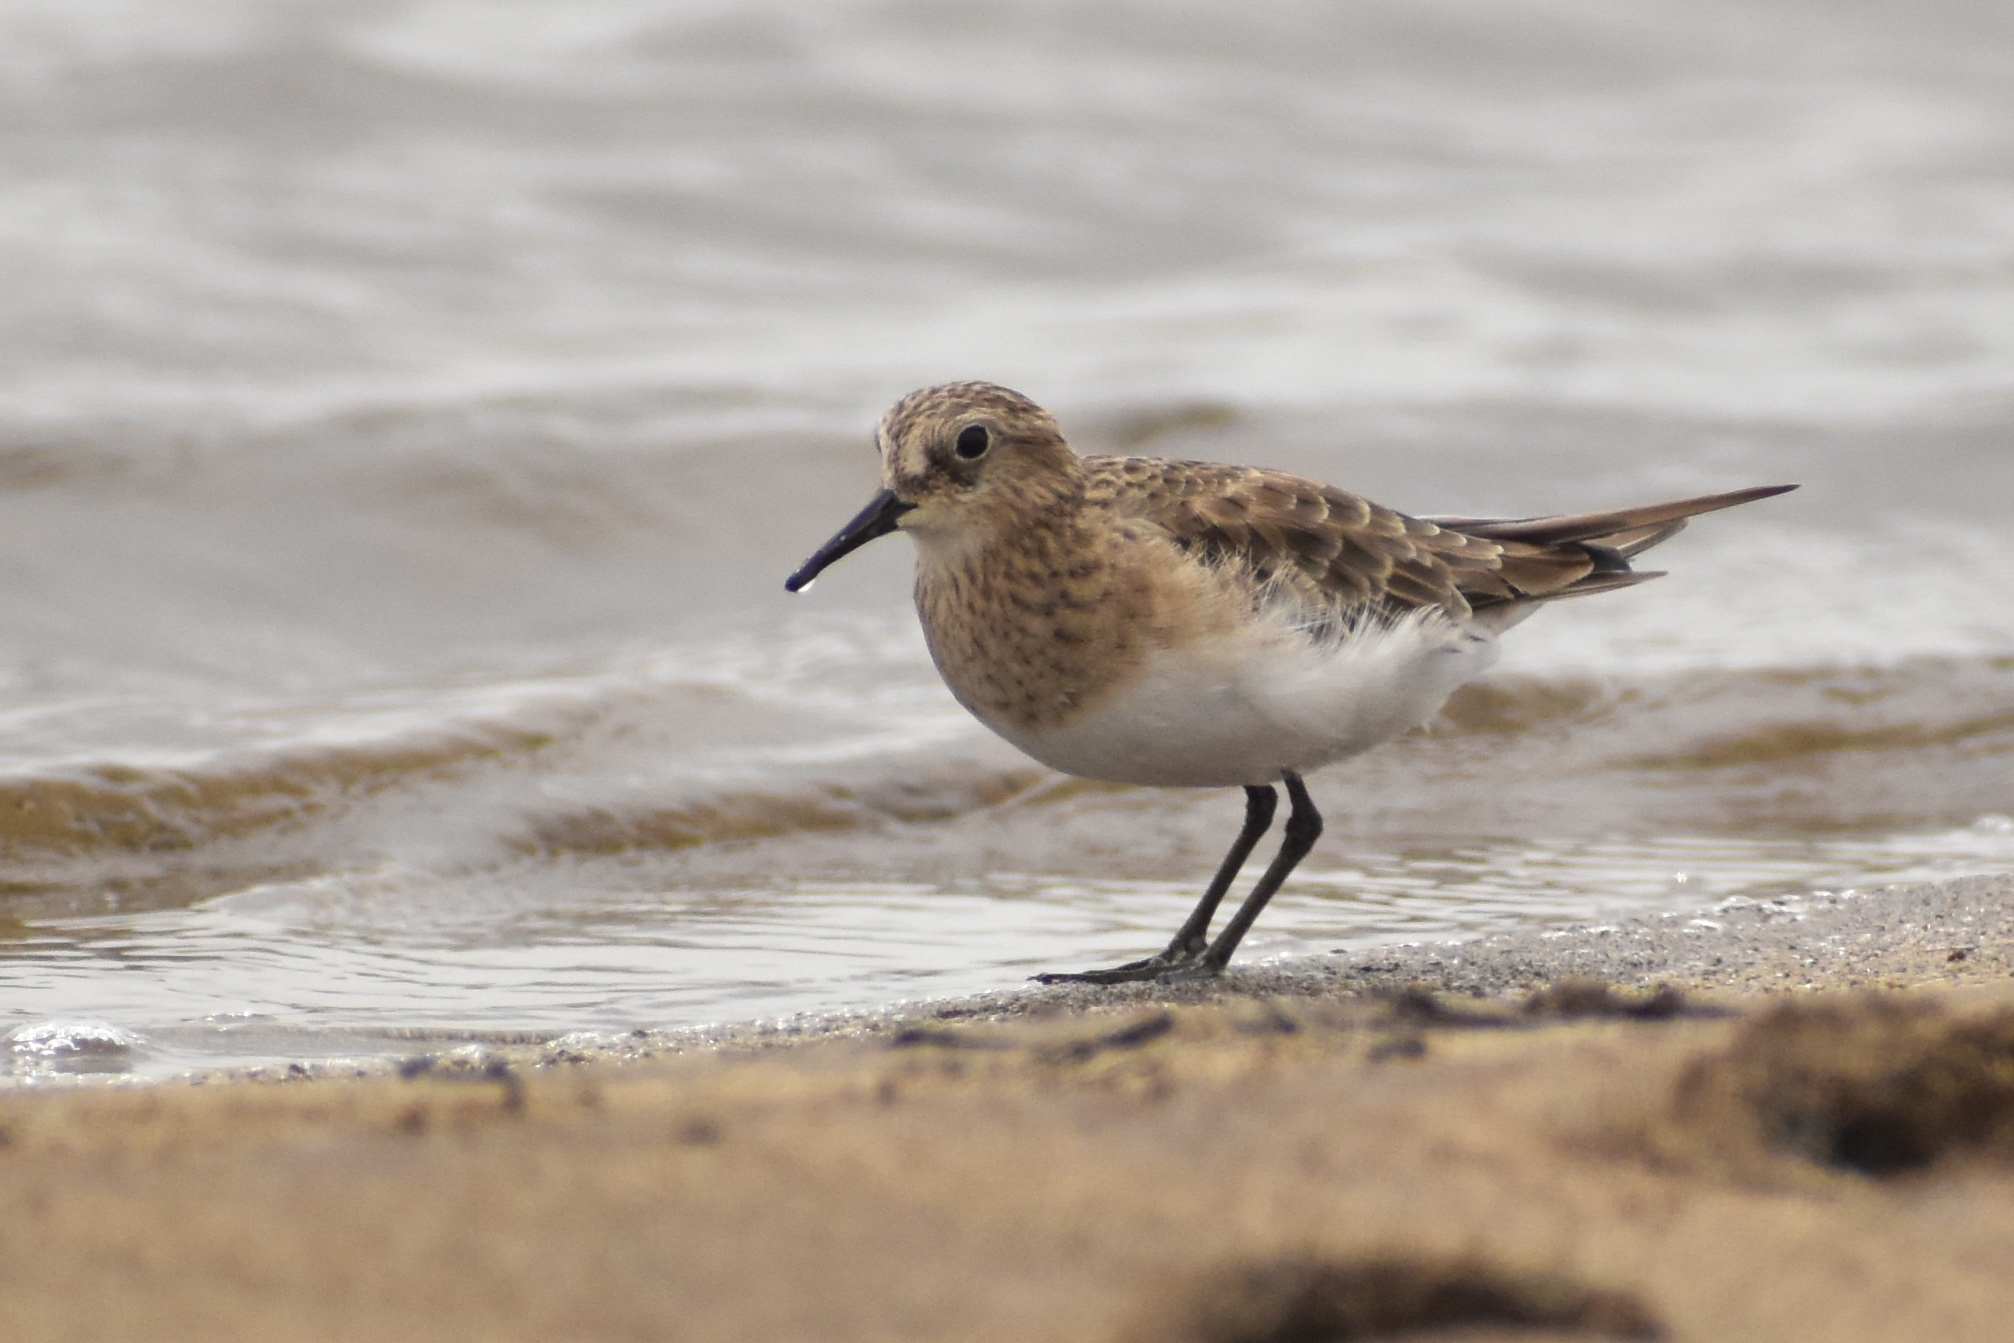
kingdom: Animalia
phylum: Chordata
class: Aves
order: Charadriiformes
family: Scolopacidae
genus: Calidris
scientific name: Calidris bairdii
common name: Baird's sandpiper
